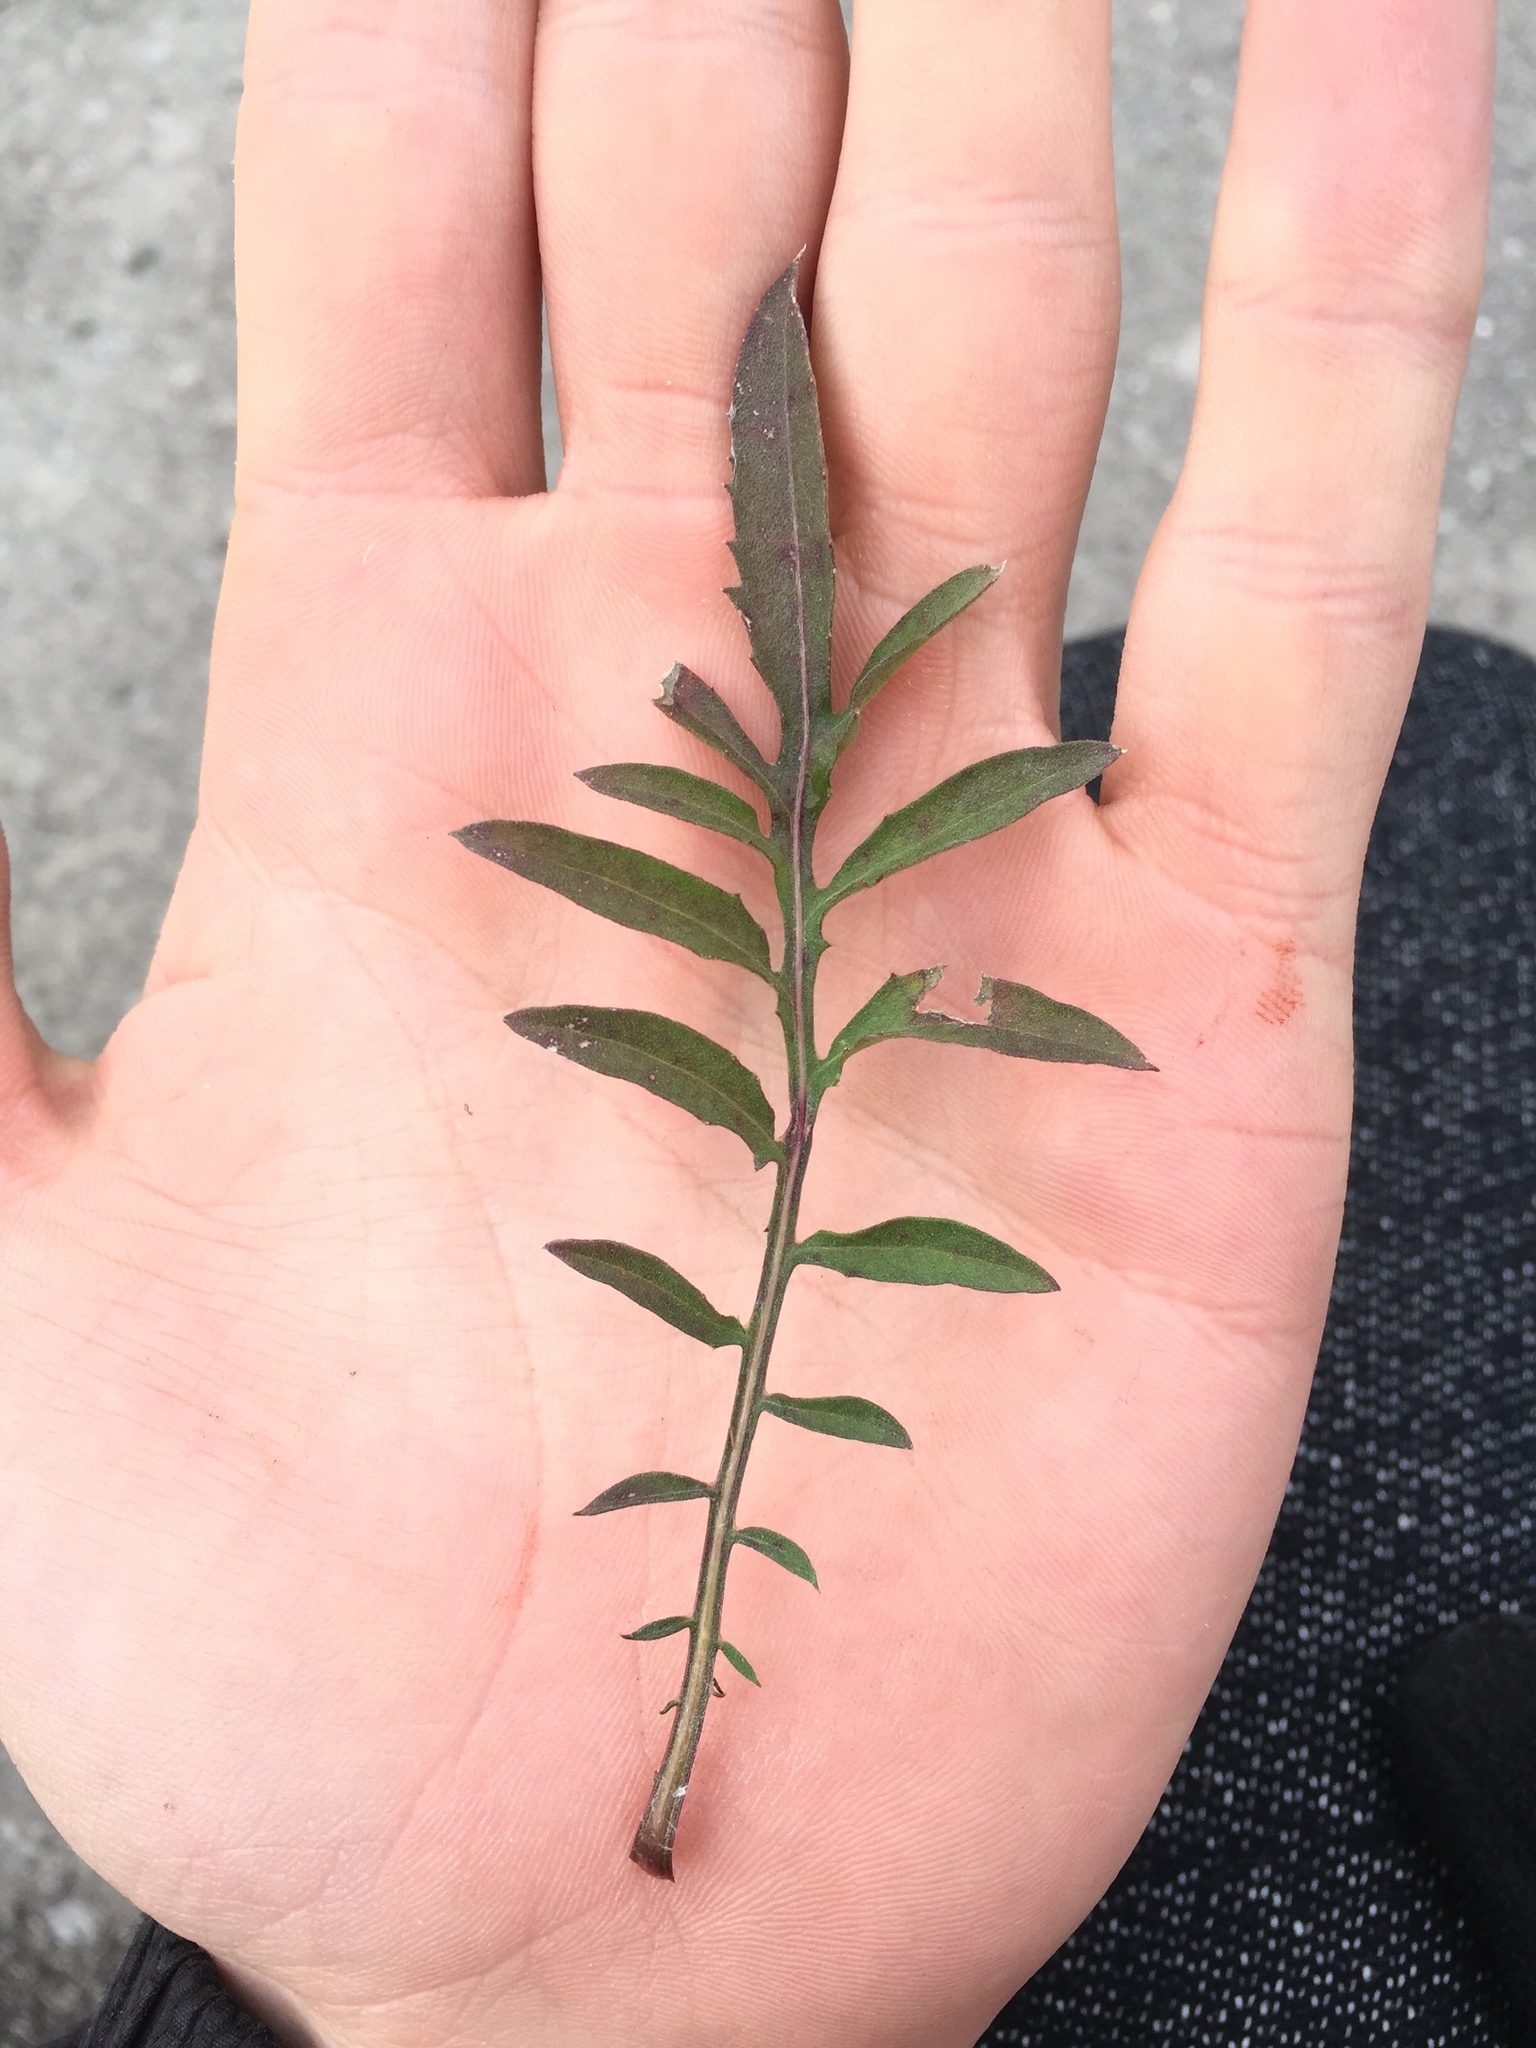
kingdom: Plantae
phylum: Tracheophyta
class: Magnoliopsida
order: Asterales
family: Asteraceae
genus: Centaurea
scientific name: Centaurea stoebe
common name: Spotted knapweed
